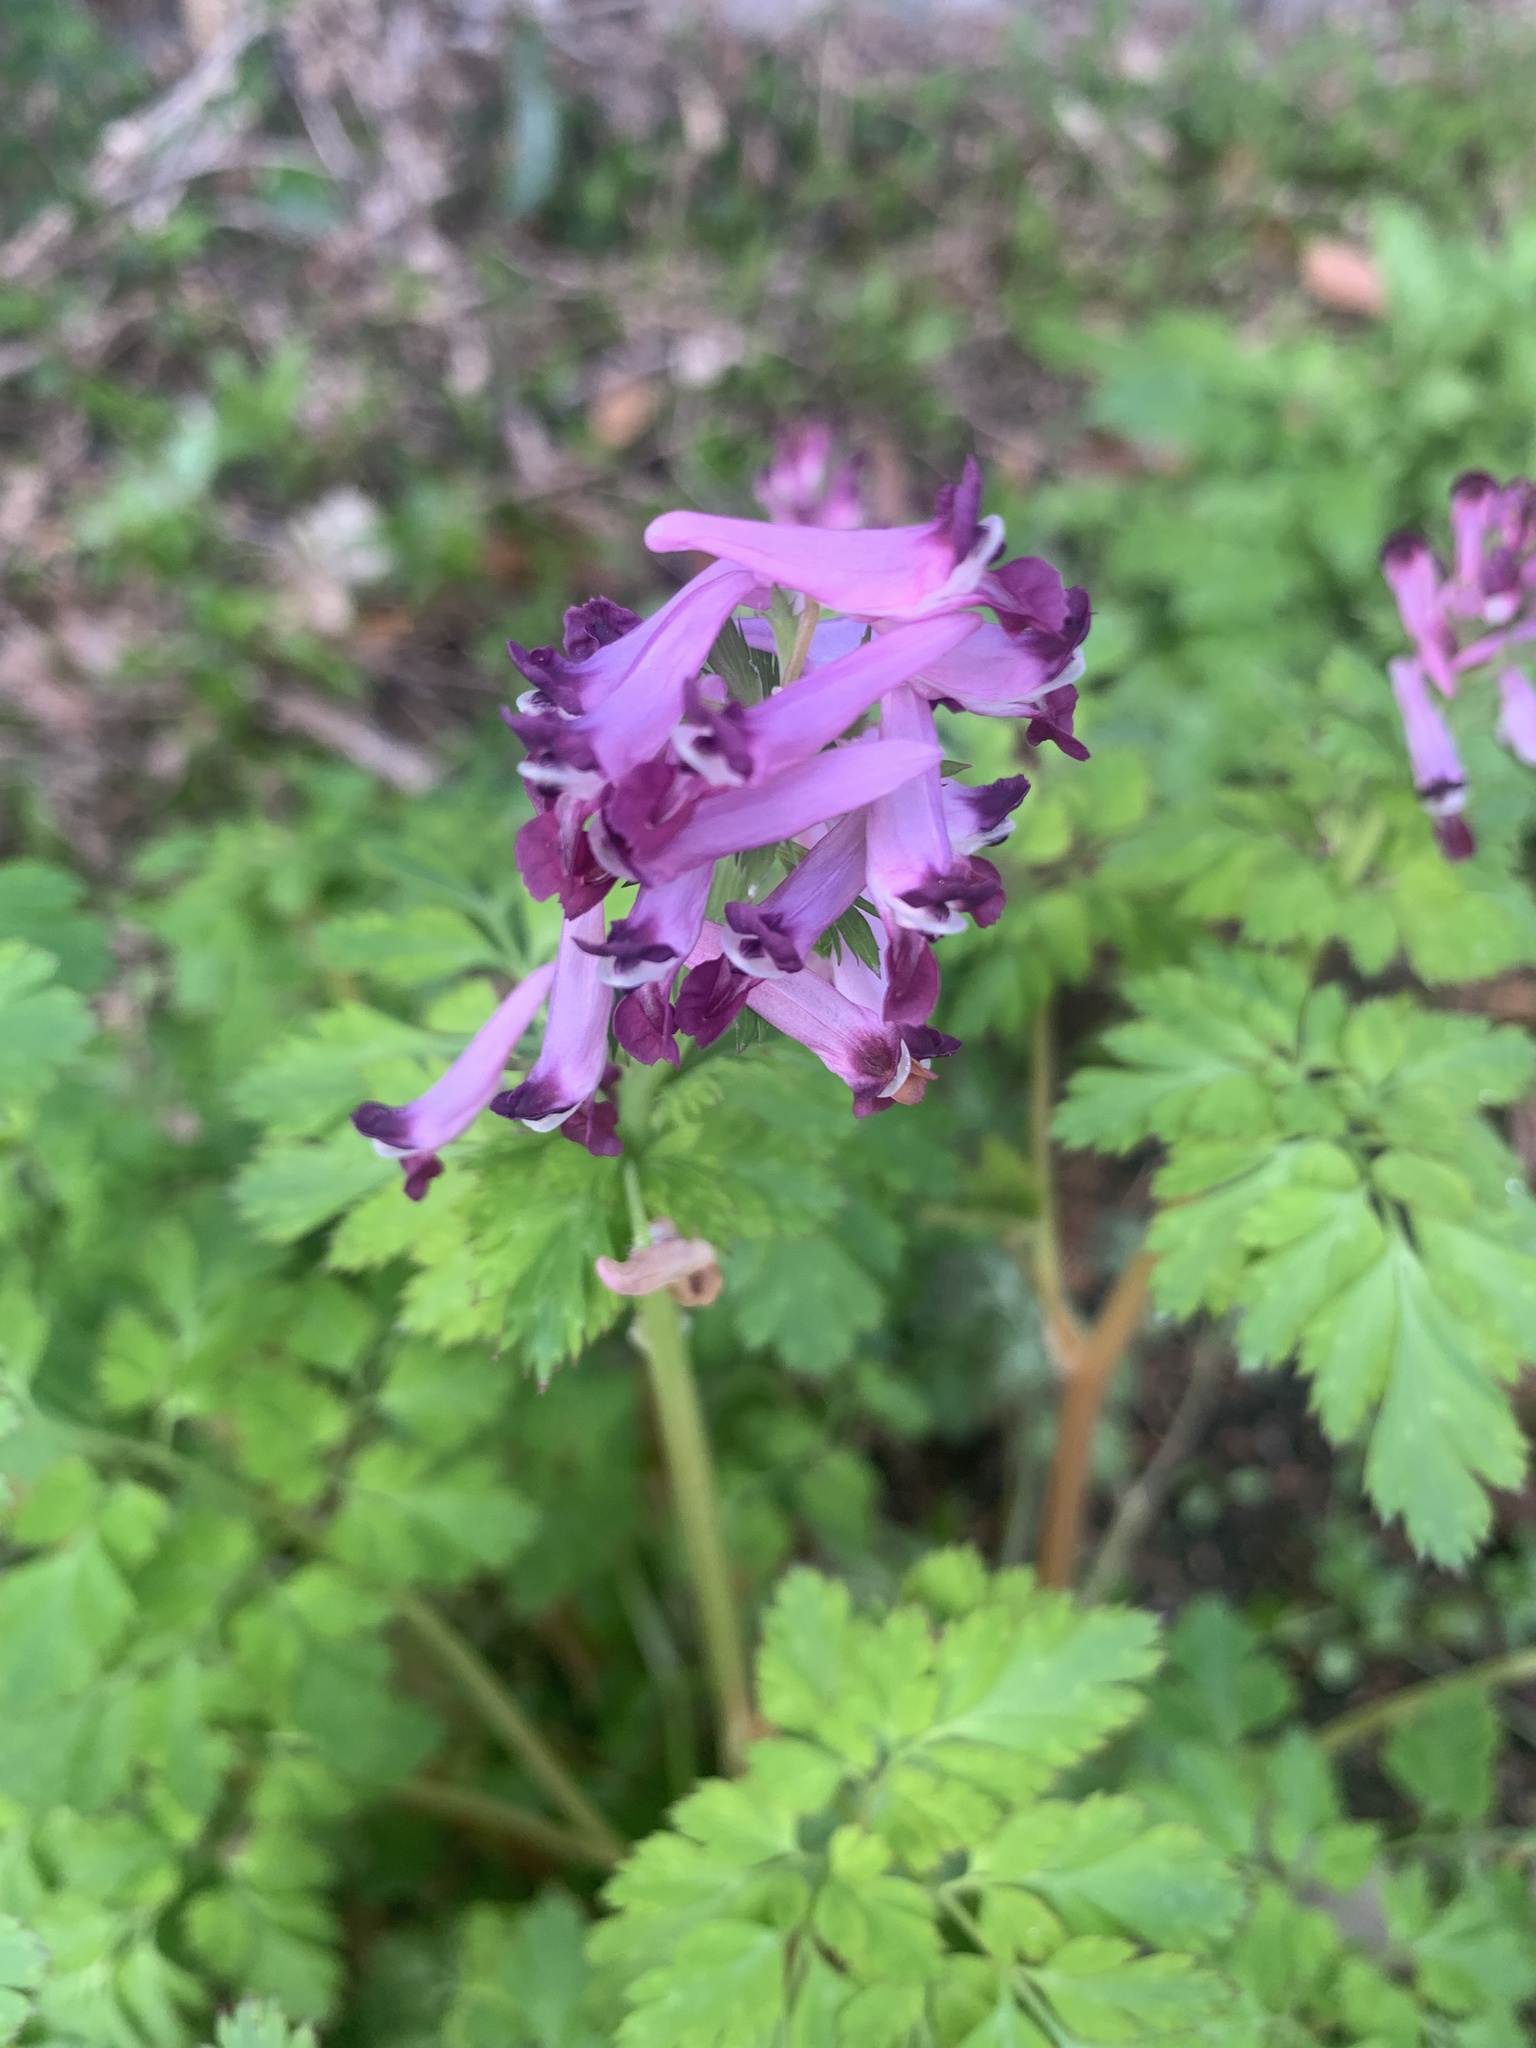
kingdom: Plantae
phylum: Tracheophyta
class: Magnoliopsida
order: Ranunculales
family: Papaveraceae
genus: Corydalis
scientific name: Corydalis incisa
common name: Incised fumewort
